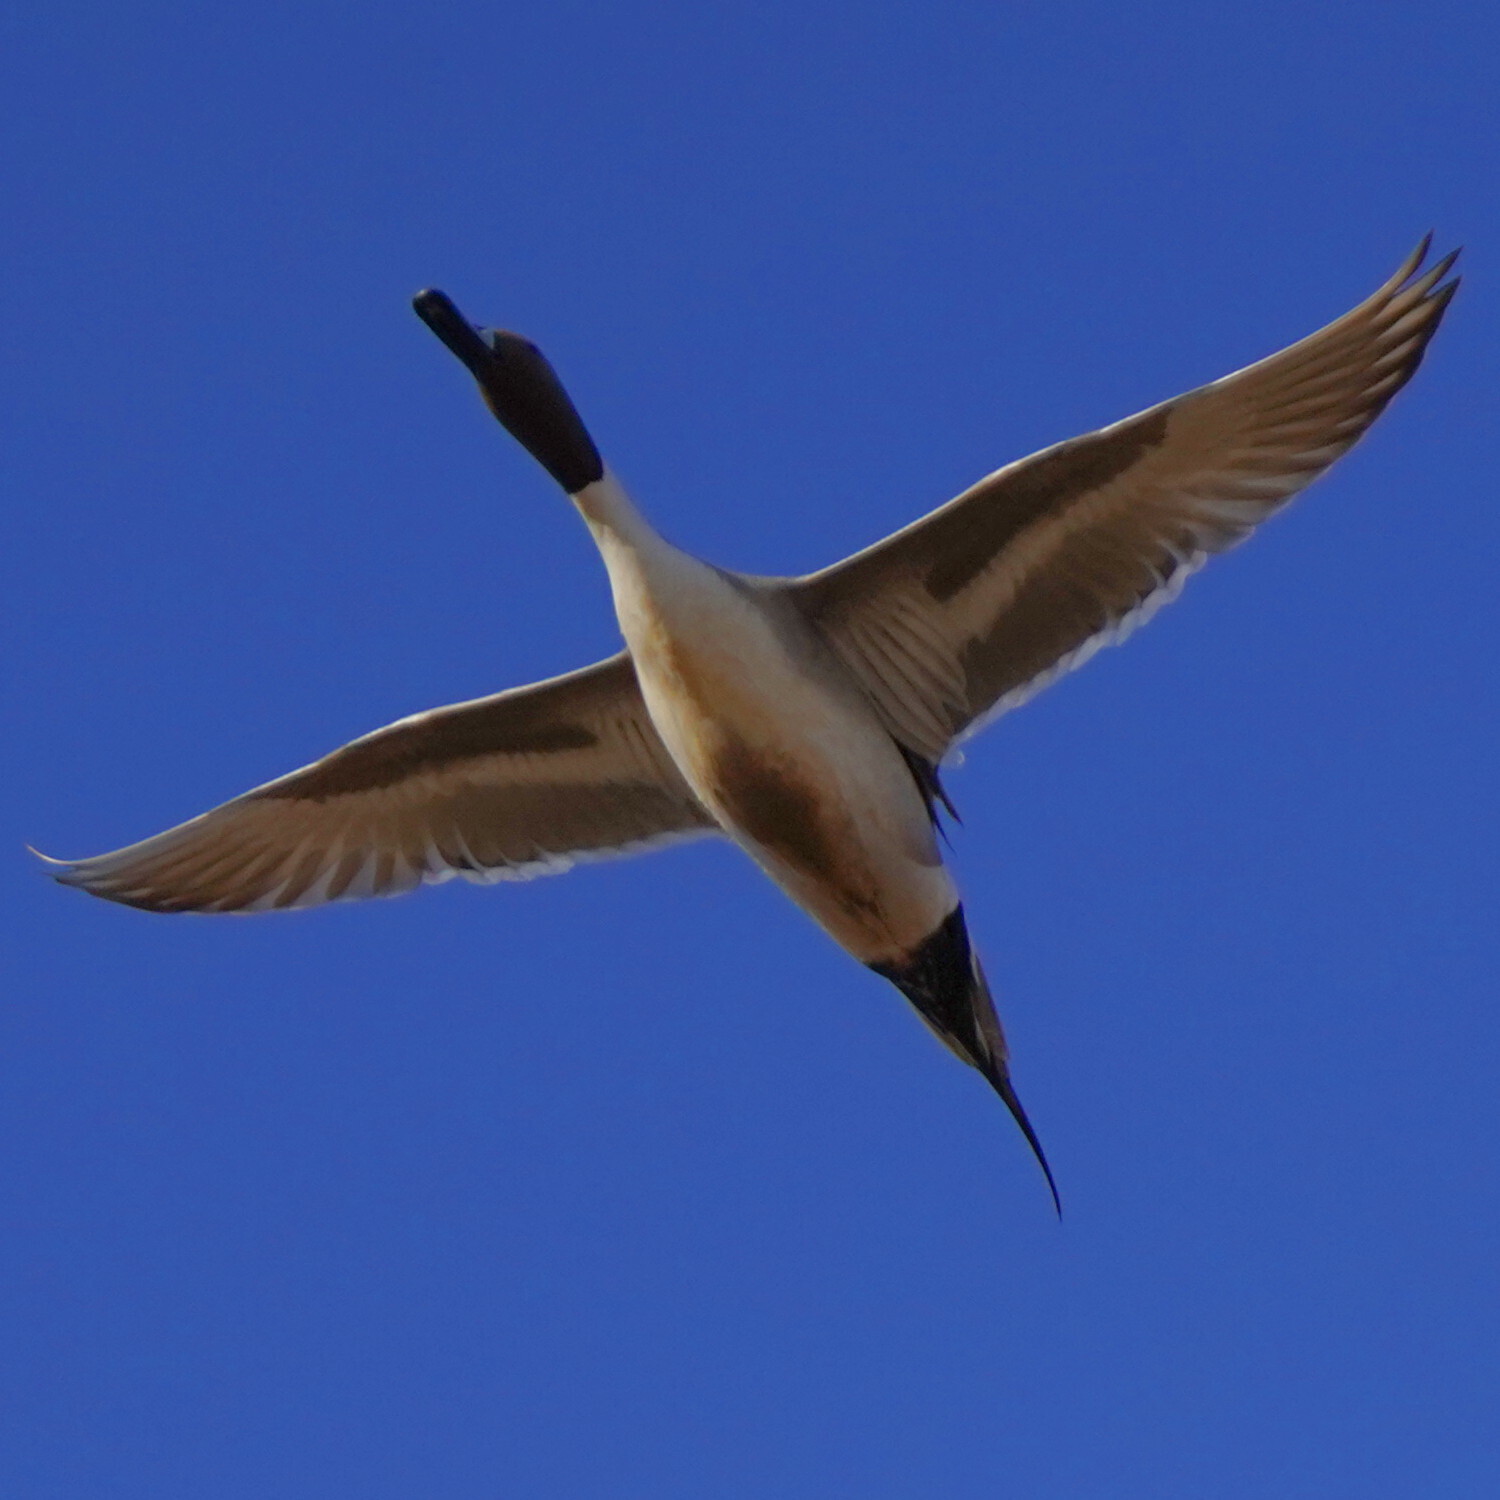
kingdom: Animalia
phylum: Chordata
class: Aves
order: Anseriformes
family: Anatidae
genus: Anas
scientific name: Anas acuta
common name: Northern pintail
